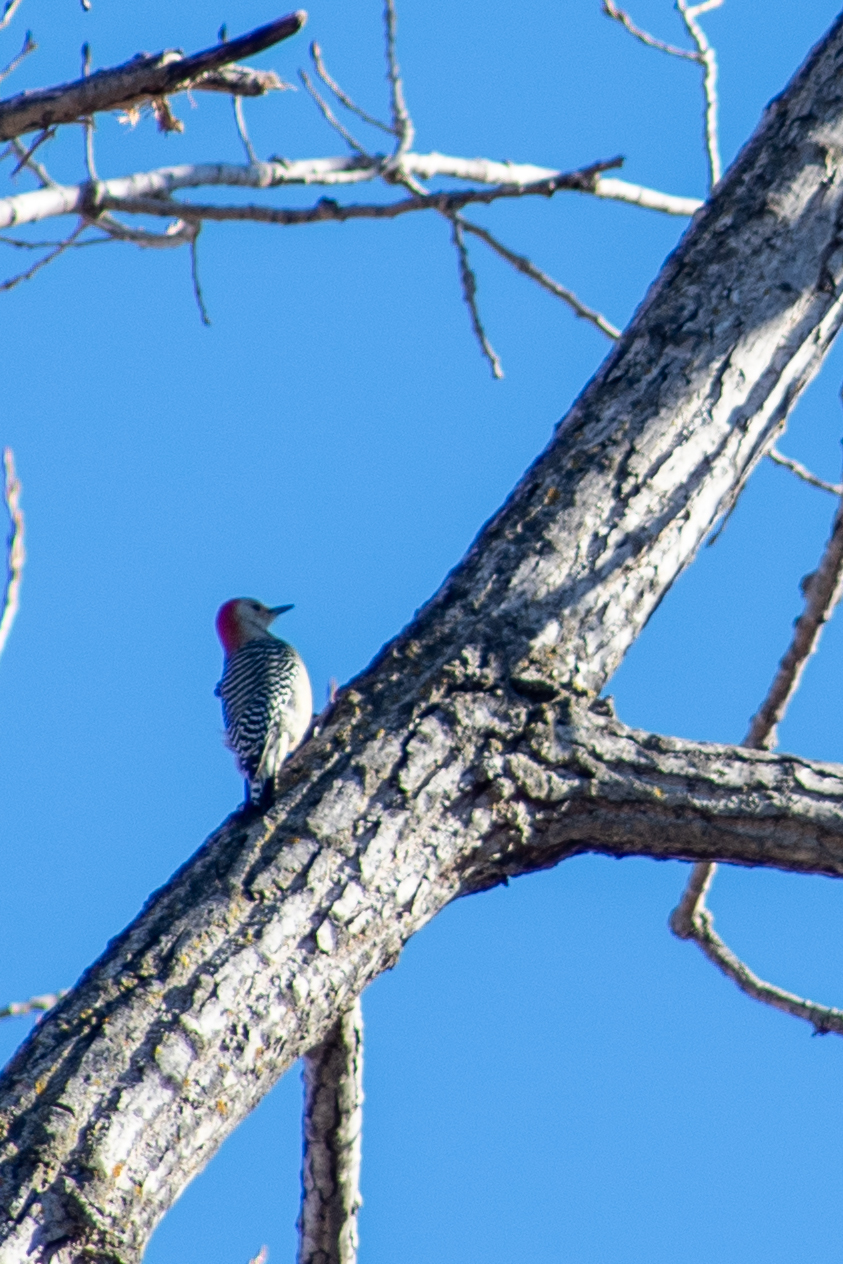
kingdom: Animalia
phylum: Chordata
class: Aves
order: Piciformes
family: Picidae
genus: Melanerpes
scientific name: Melanerpes carolinus
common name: Red-bellied woodpecker
